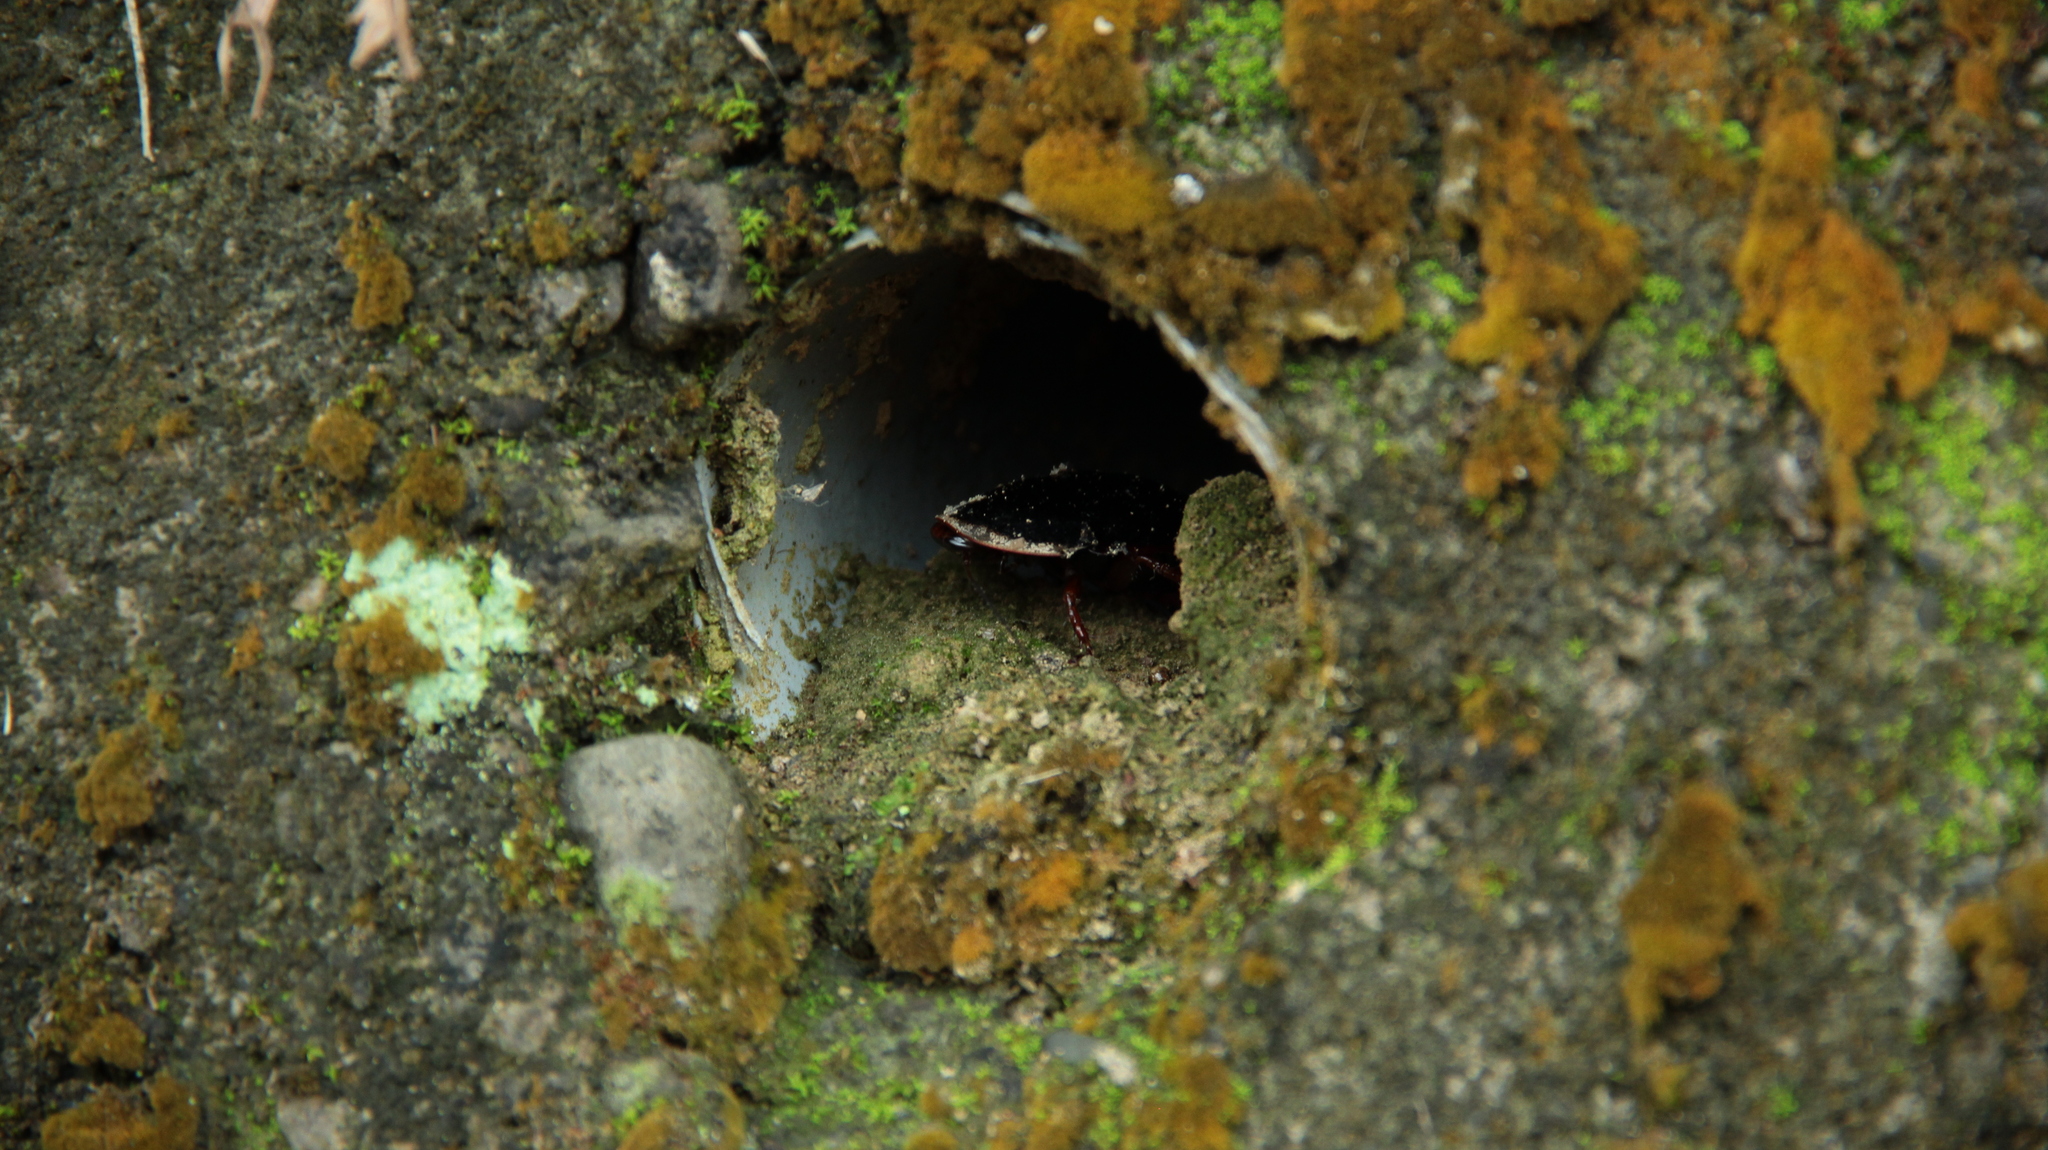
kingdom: Animalia
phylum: Arthropoda
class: Insecta
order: Blattodea
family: Blaberidae
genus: Opisthoplatia
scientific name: Opisthoplatia orientalis
